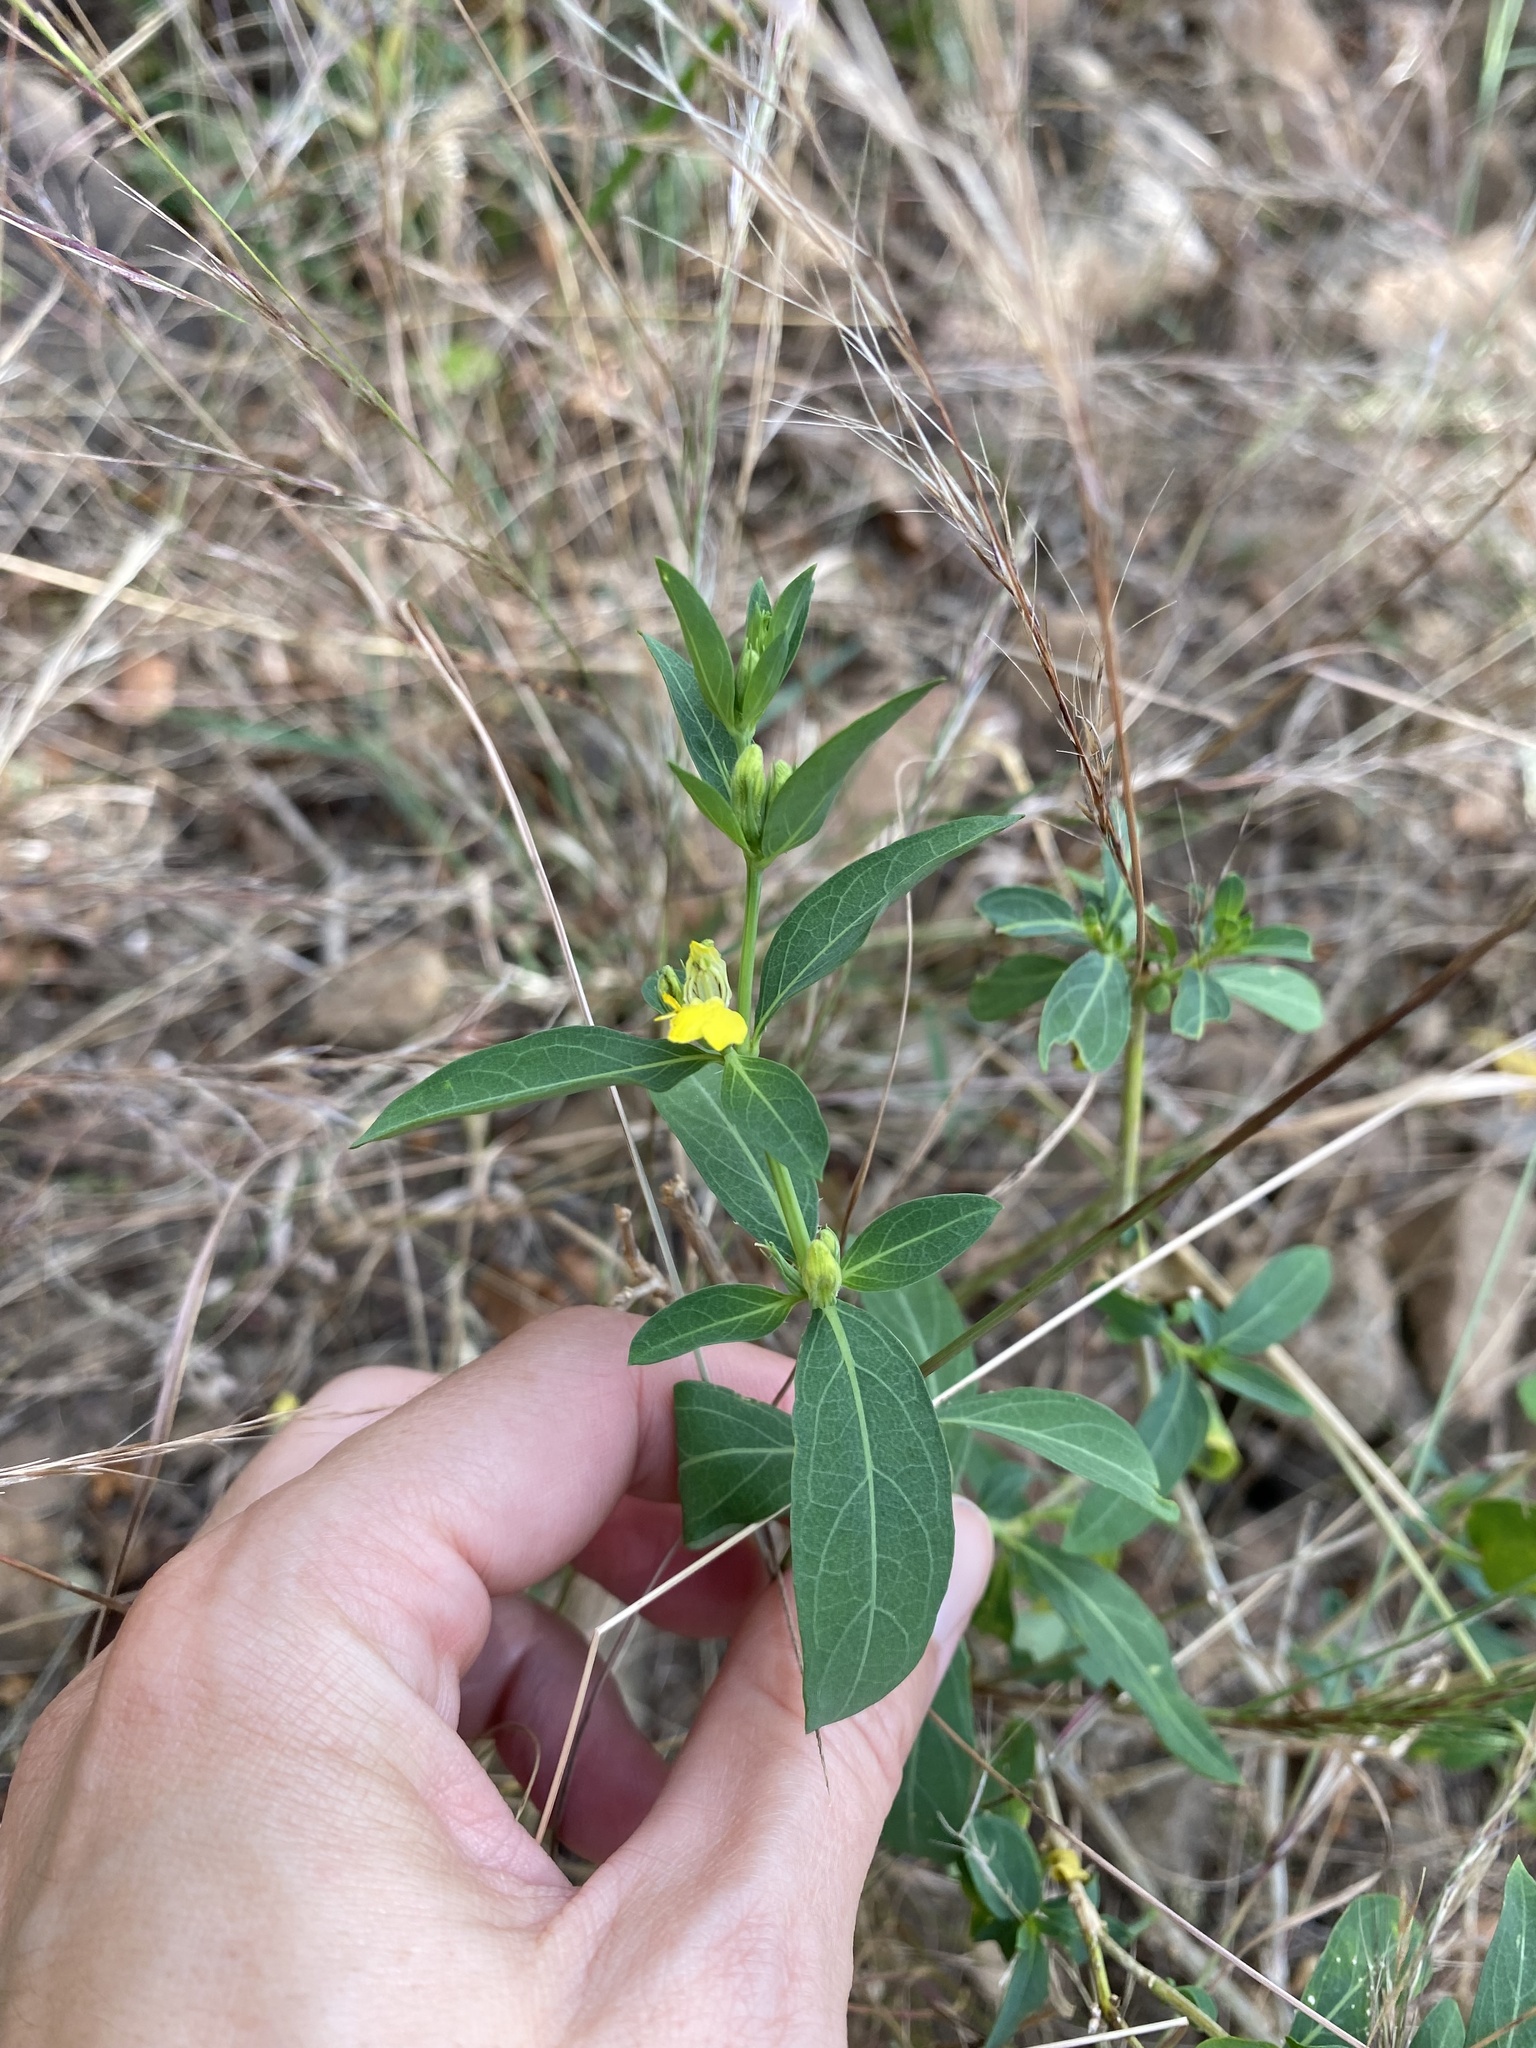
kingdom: Plantae
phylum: Tracheophyta
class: Magnoliopsida
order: Lamiales
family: Acanthaceae
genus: Justicia
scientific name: Justicia odora
